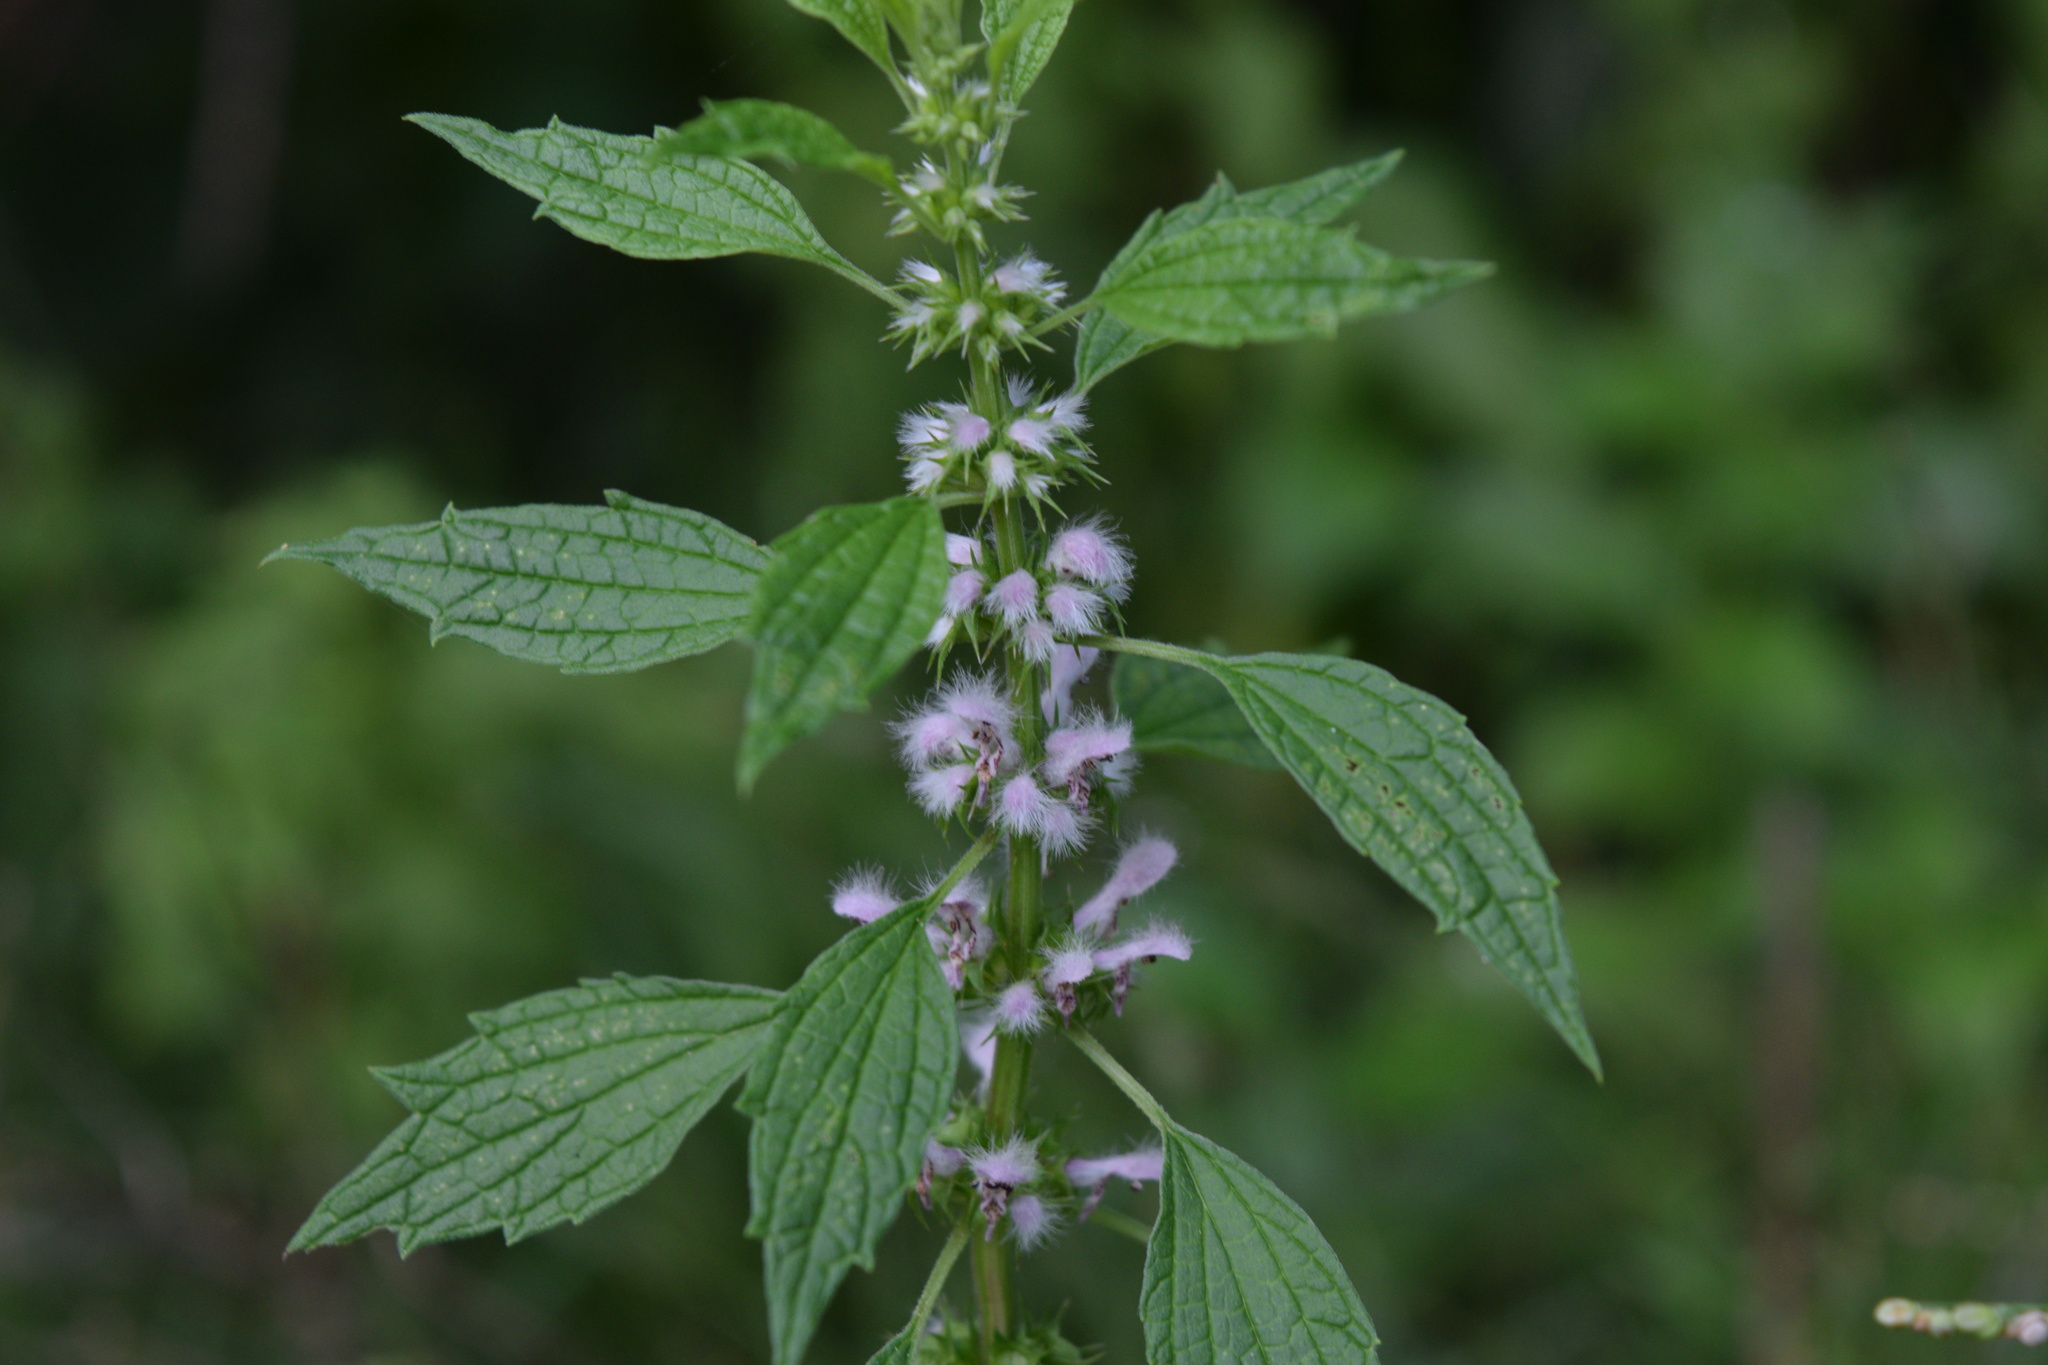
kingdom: Plantae
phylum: Tracheophyta
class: Magnoliopsida
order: Lamiales
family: Lamiaceae
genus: Leonurus
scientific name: Leonurus cardiaca
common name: Motherwort
